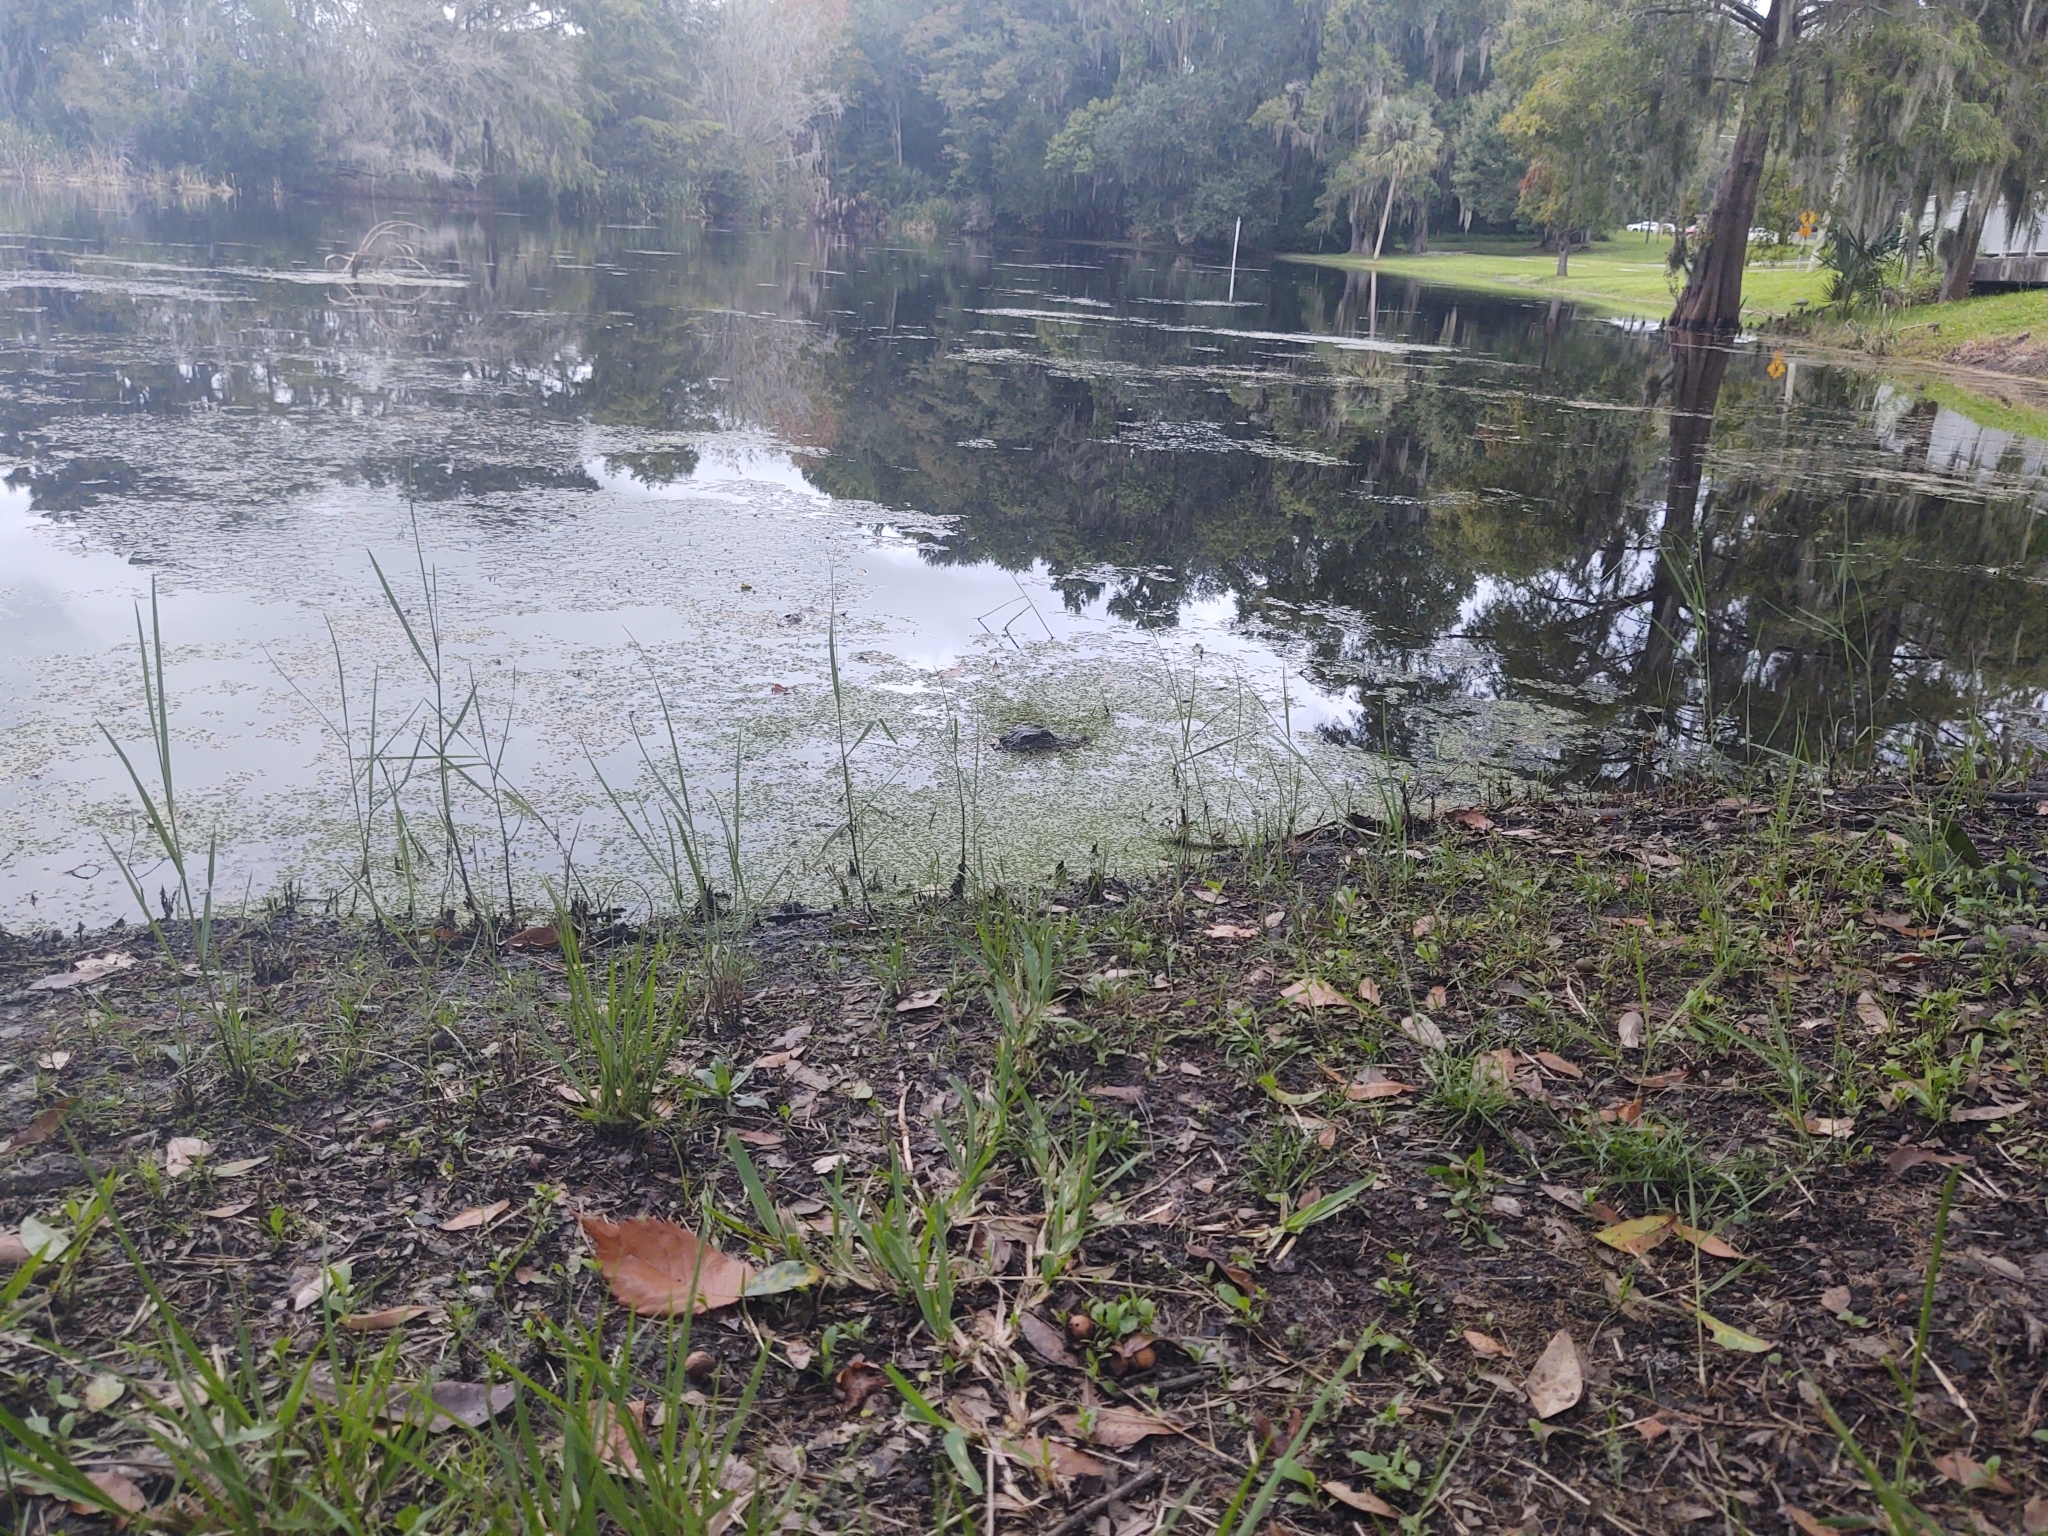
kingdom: Animalia
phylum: Chordata
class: Crocodylia
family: Alligatoridae
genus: Alligator
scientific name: Alligator mississippiensis
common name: American alligator
